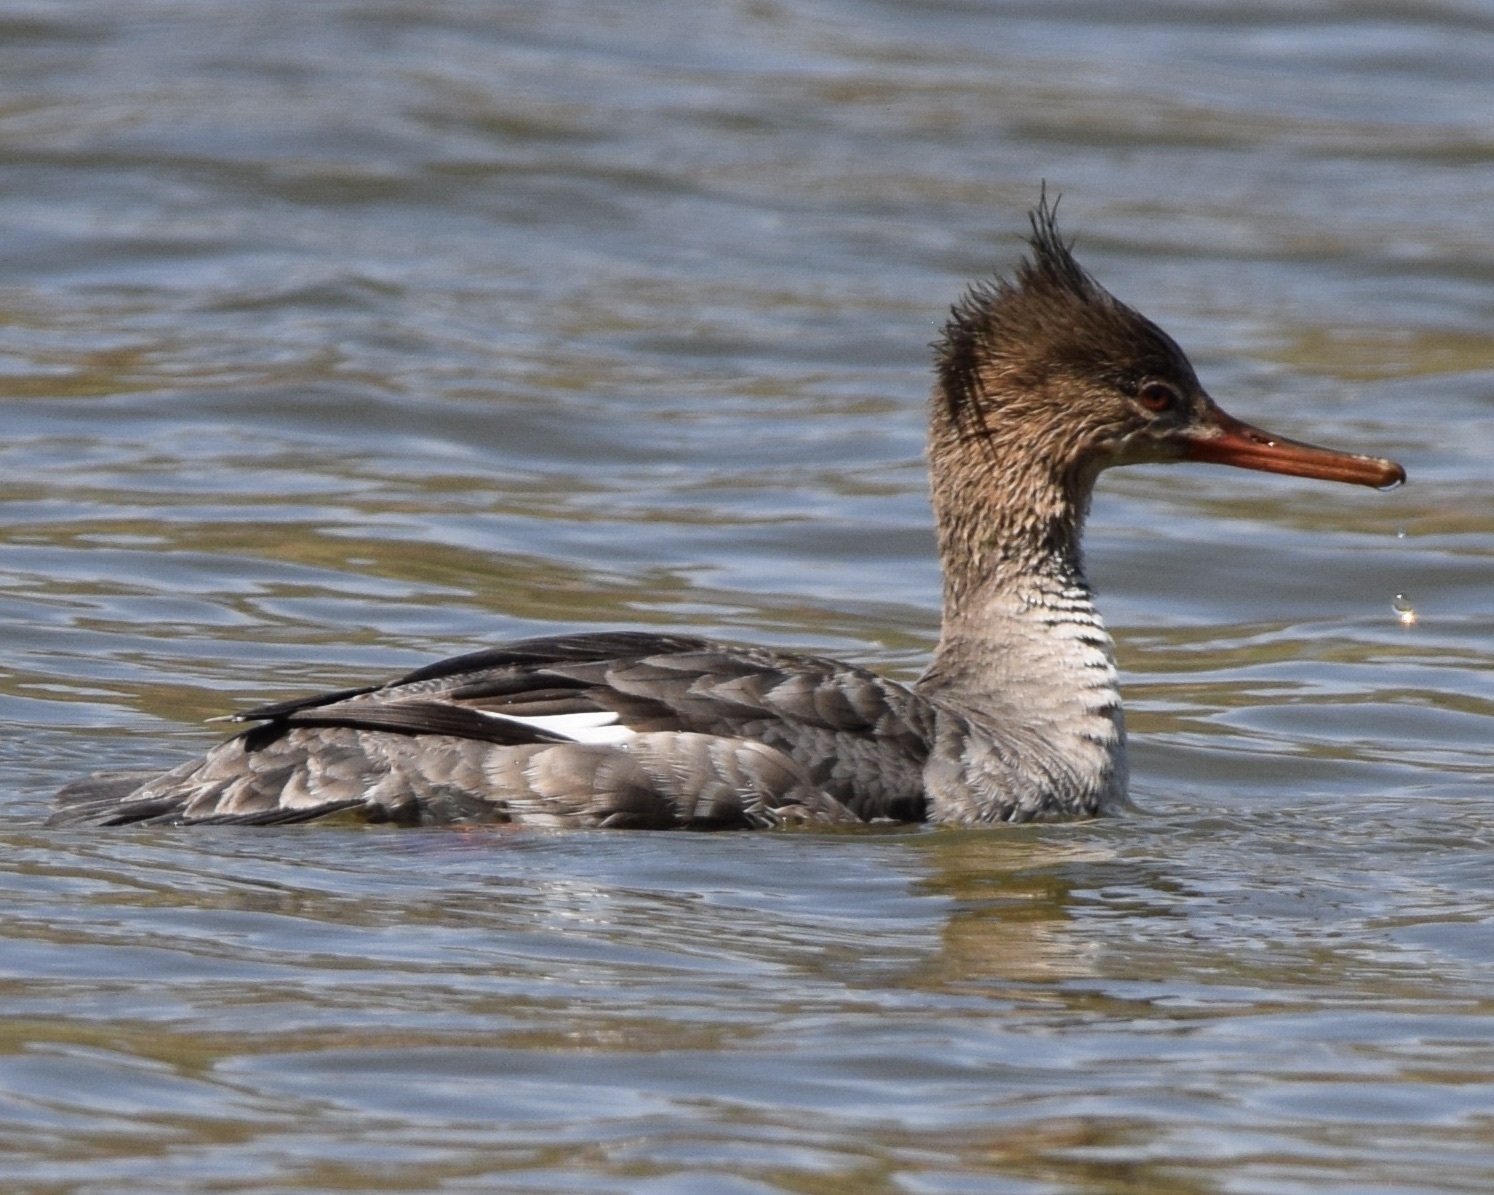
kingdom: Animalia
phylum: Chordata
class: Aves
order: Anseriformes
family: Anatidae
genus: Mergus
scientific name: Mergus serrator
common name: Red-breasted merganser
